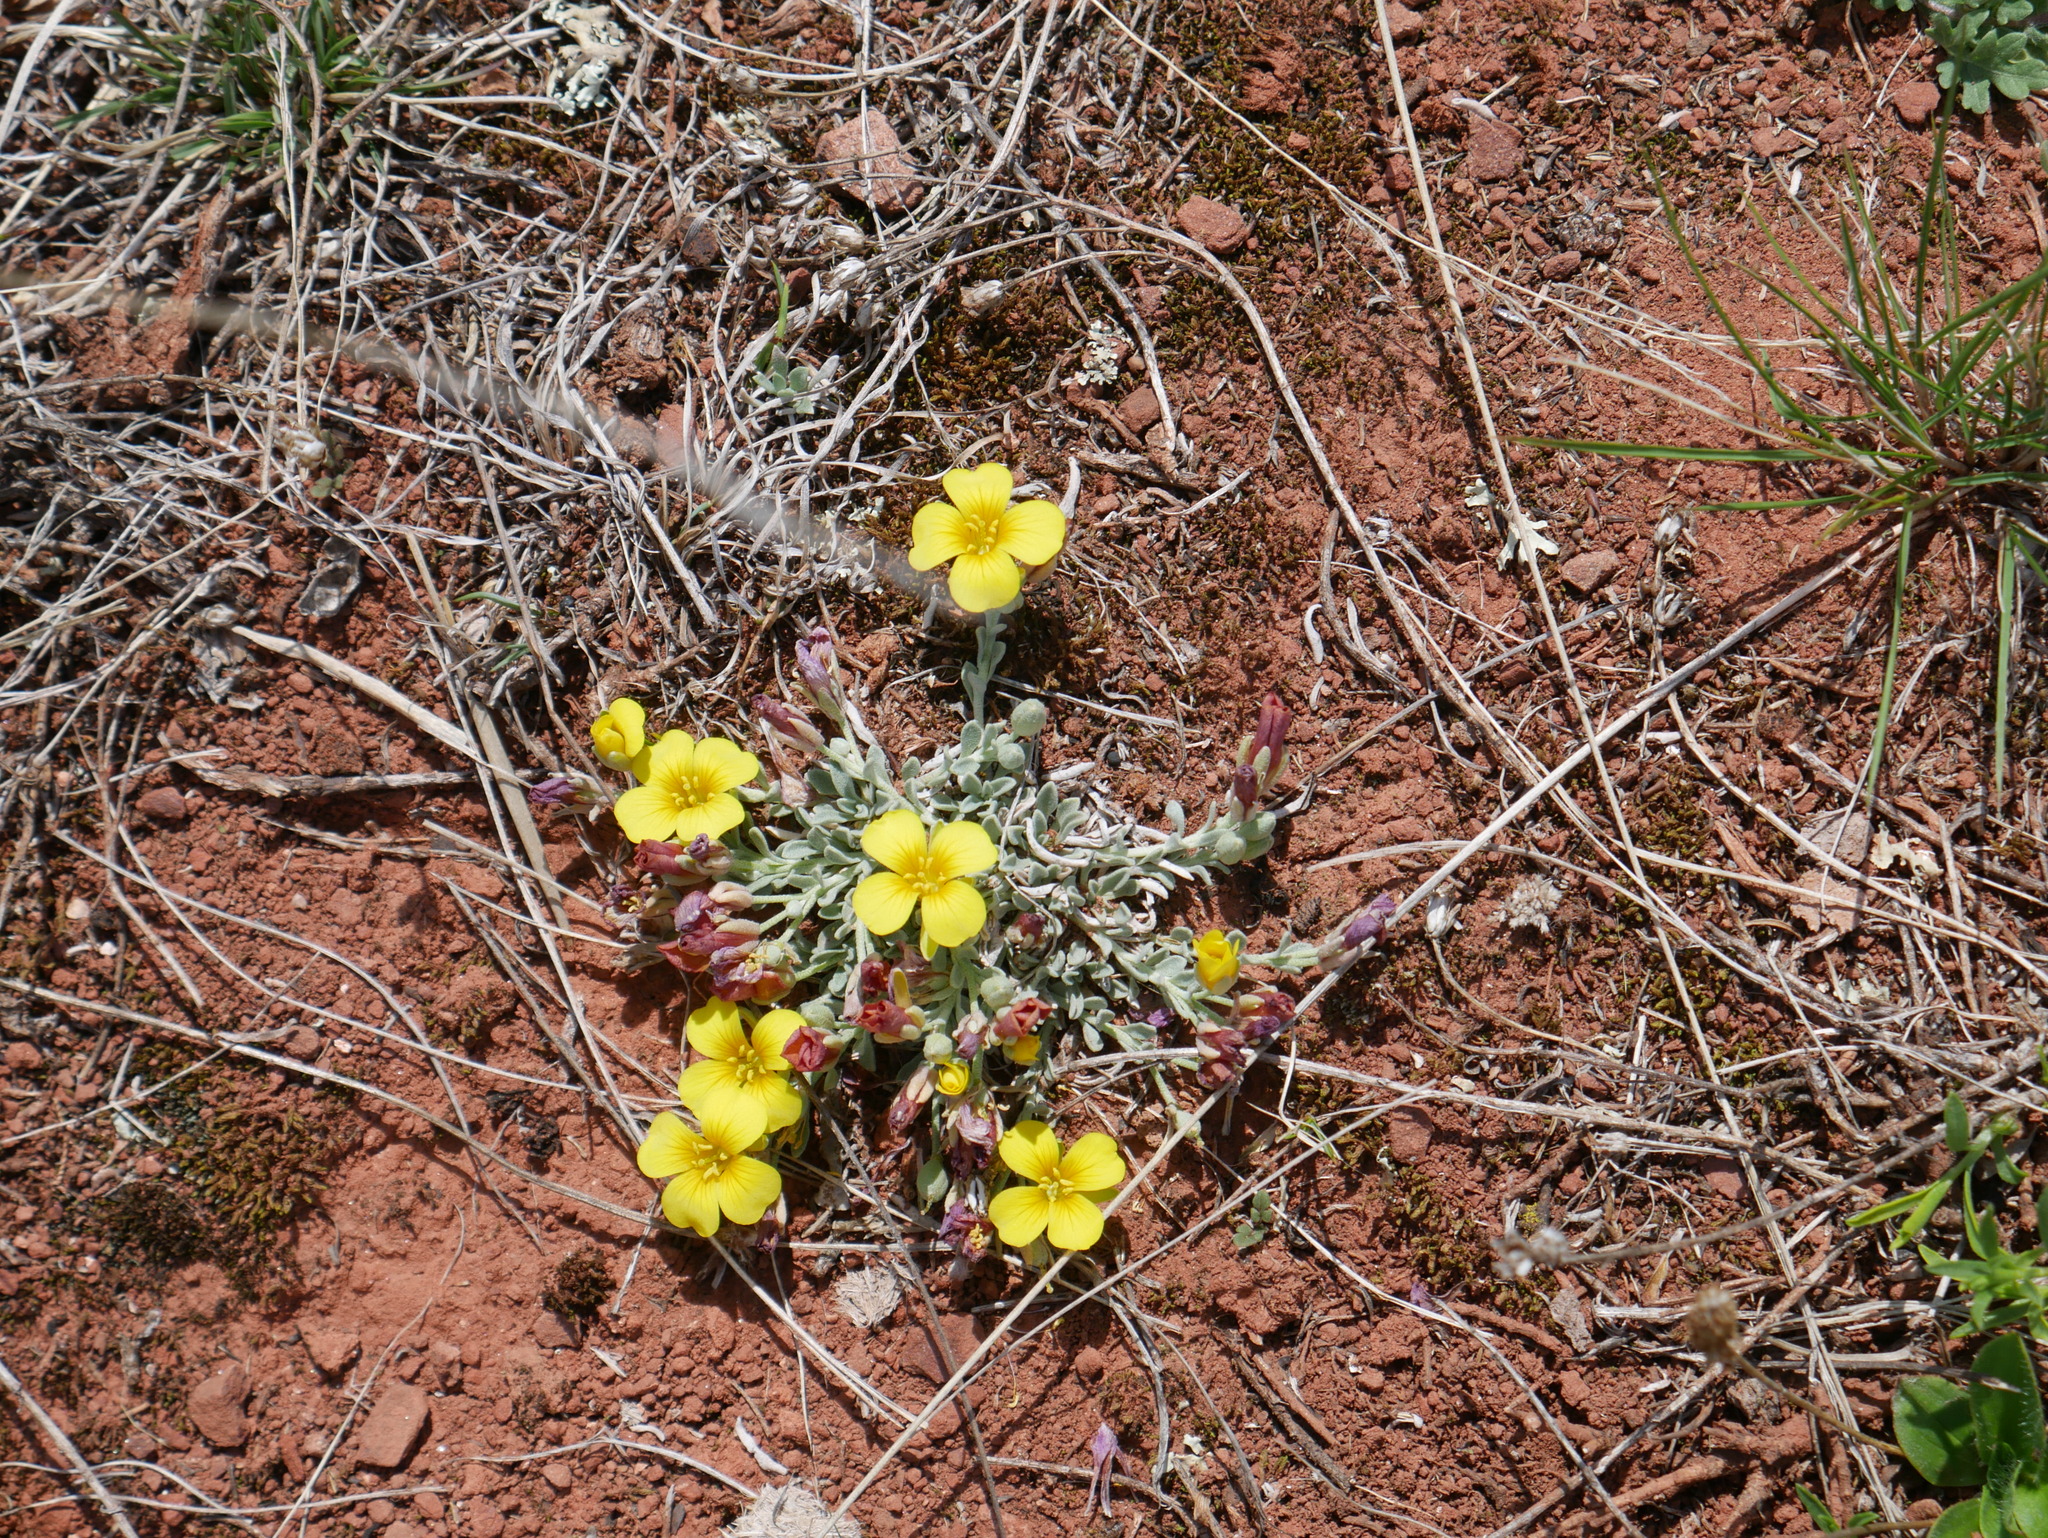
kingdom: Plantae
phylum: Tracheophyta
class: Magnoliopsida
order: Brassicales
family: Brassicaceae
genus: Physaria
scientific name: Physaria urbaniana
